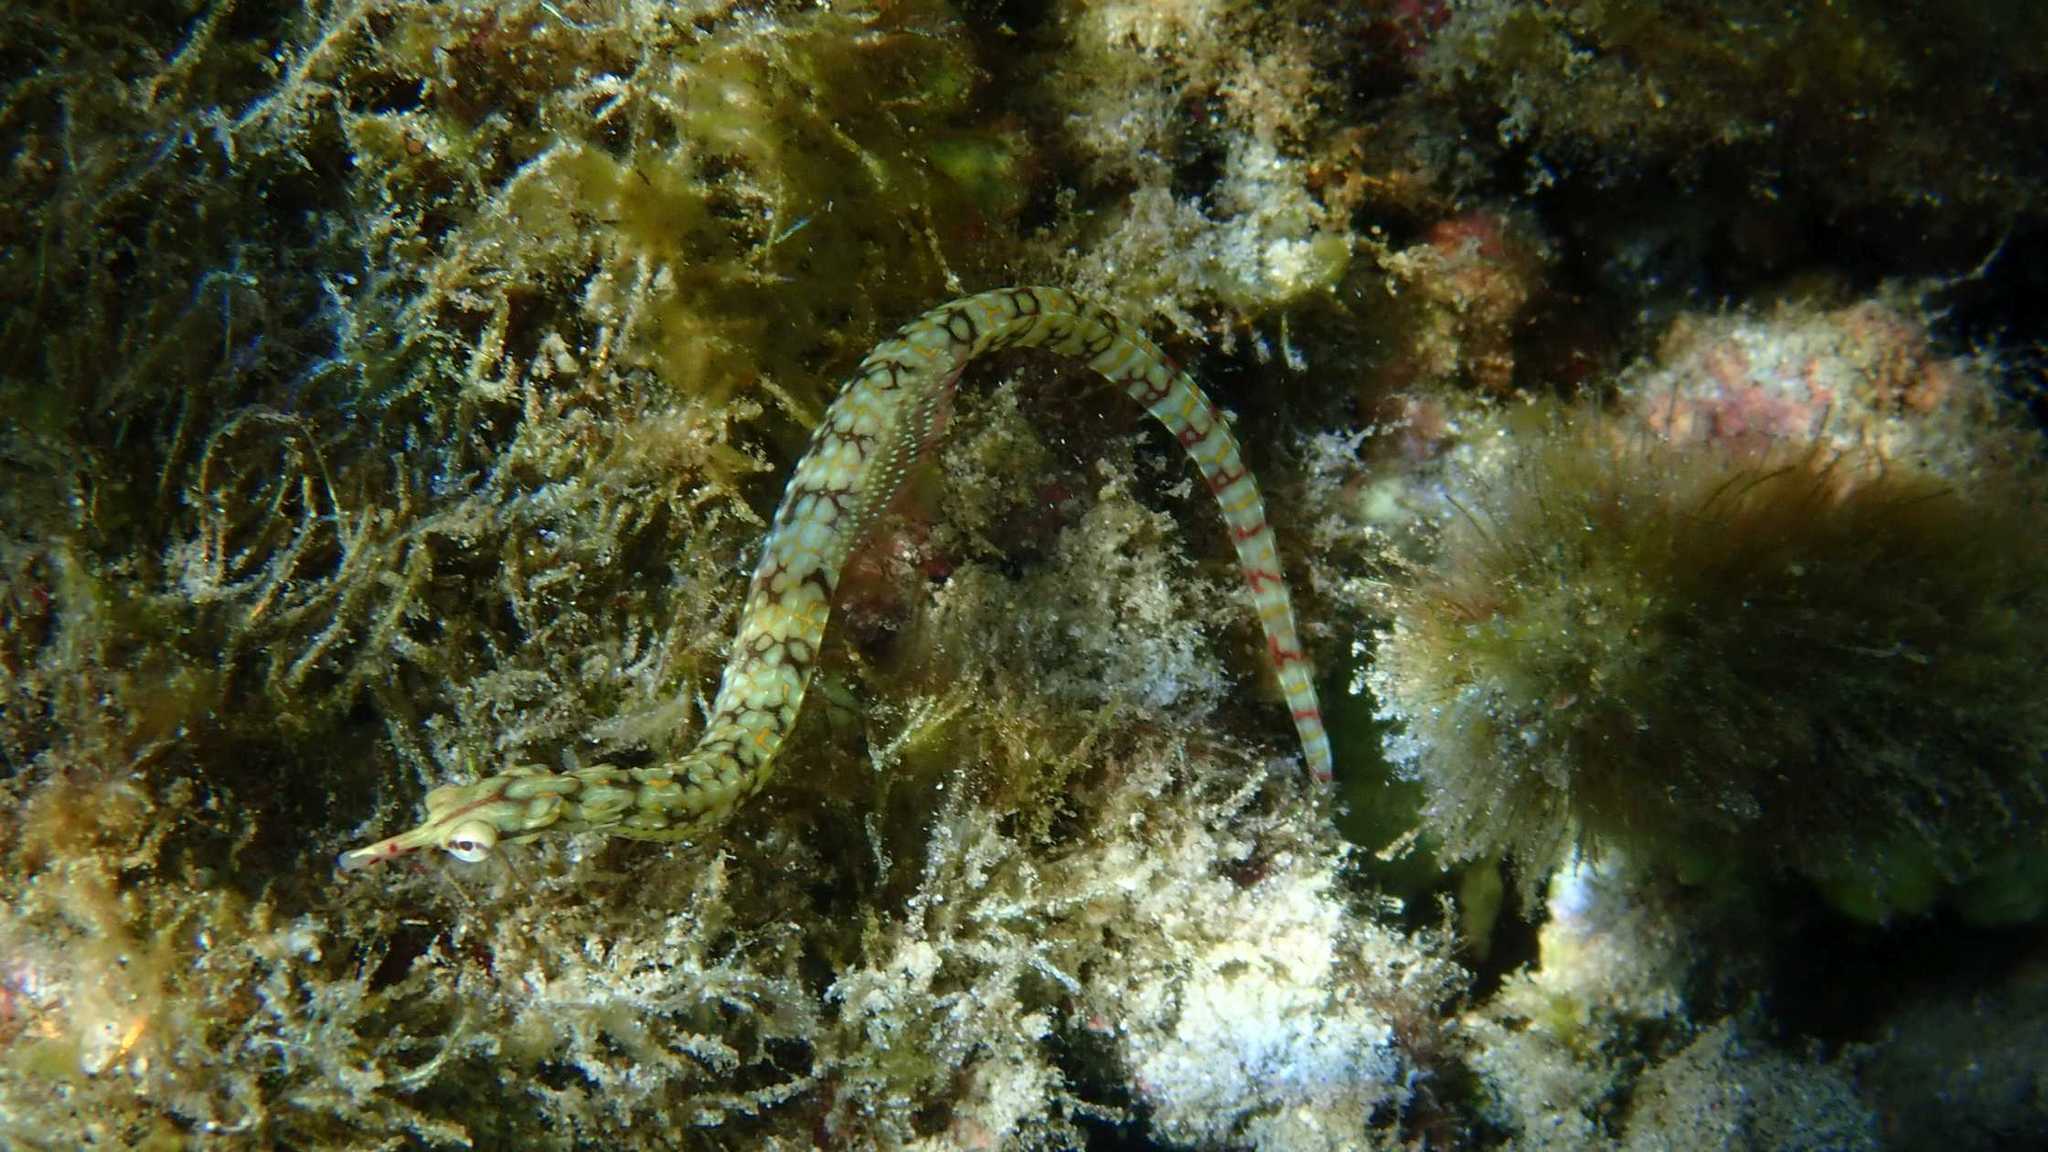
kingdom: Animalia
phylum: Chordata
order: Syngnathiformes
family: Syngnathidae
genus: Corythoichthys
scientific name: Corythoichthys flavofasciatus
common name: Banded pipefish
